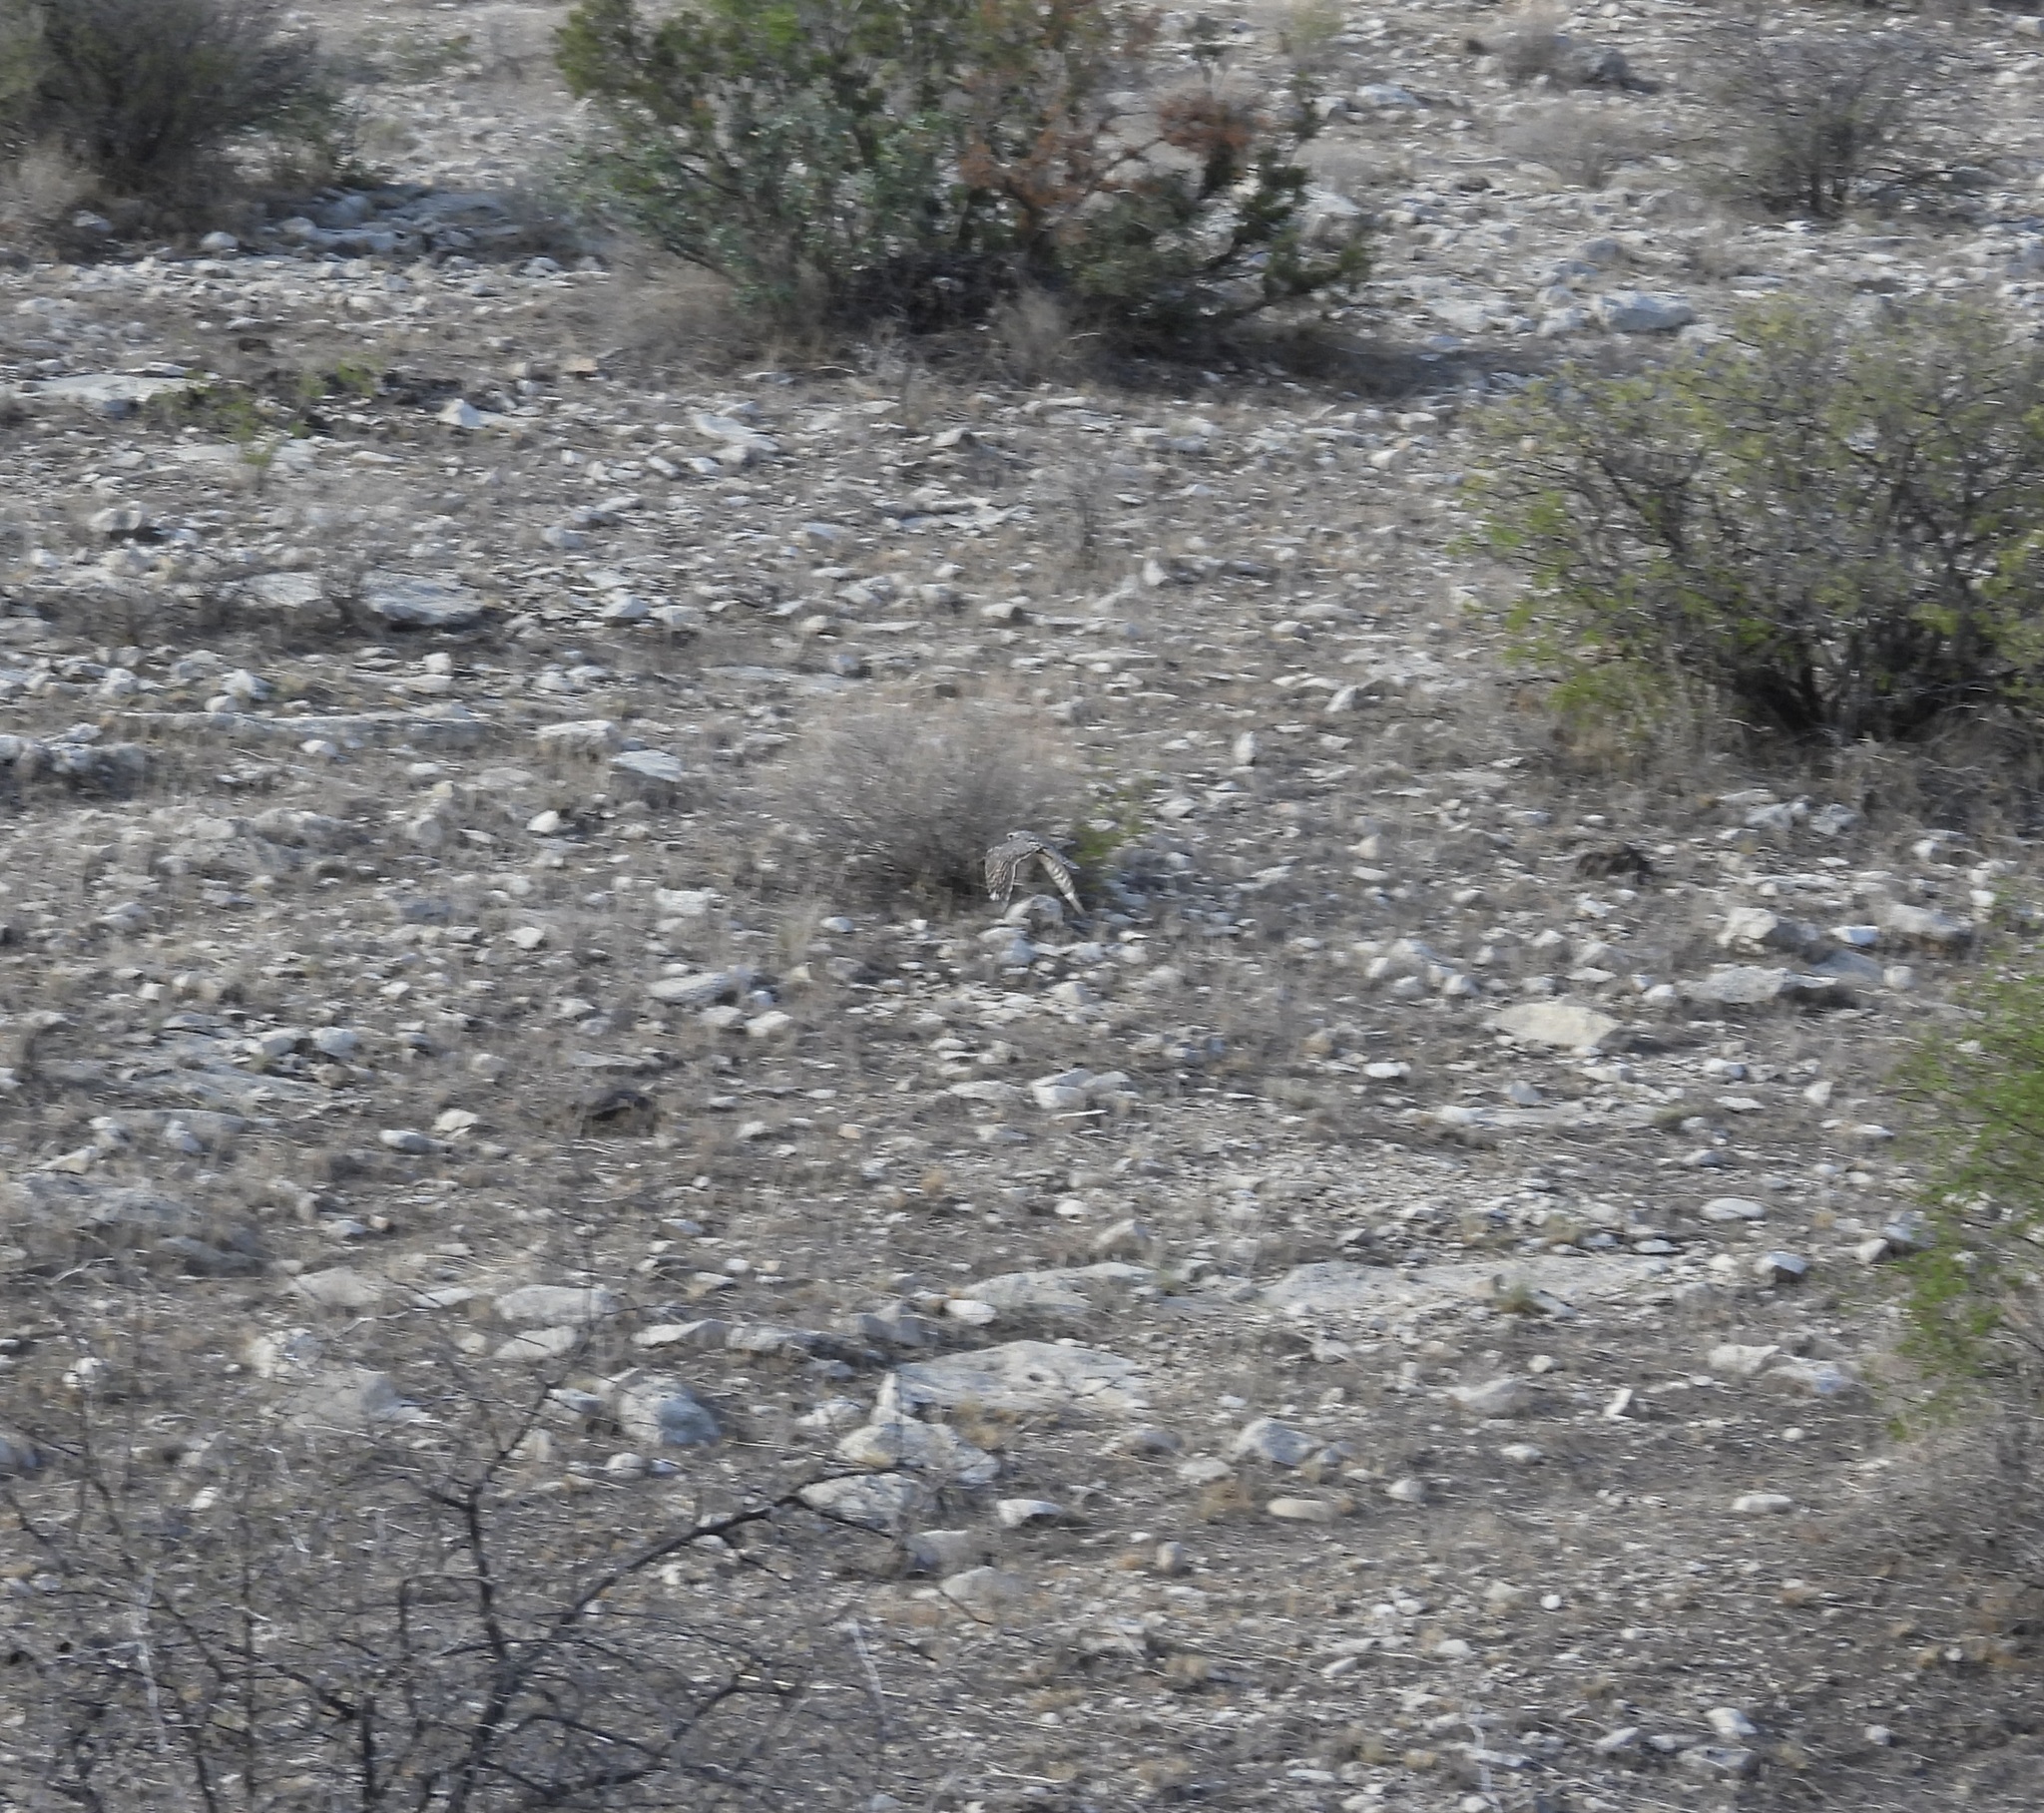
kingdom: Animalia
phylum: Chordata
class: Aves
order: Caprimulgiformes
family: Caprimulgidae
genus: Chordeiles
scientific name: Chordeiles acutipennis
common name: Lesser nighthawk
